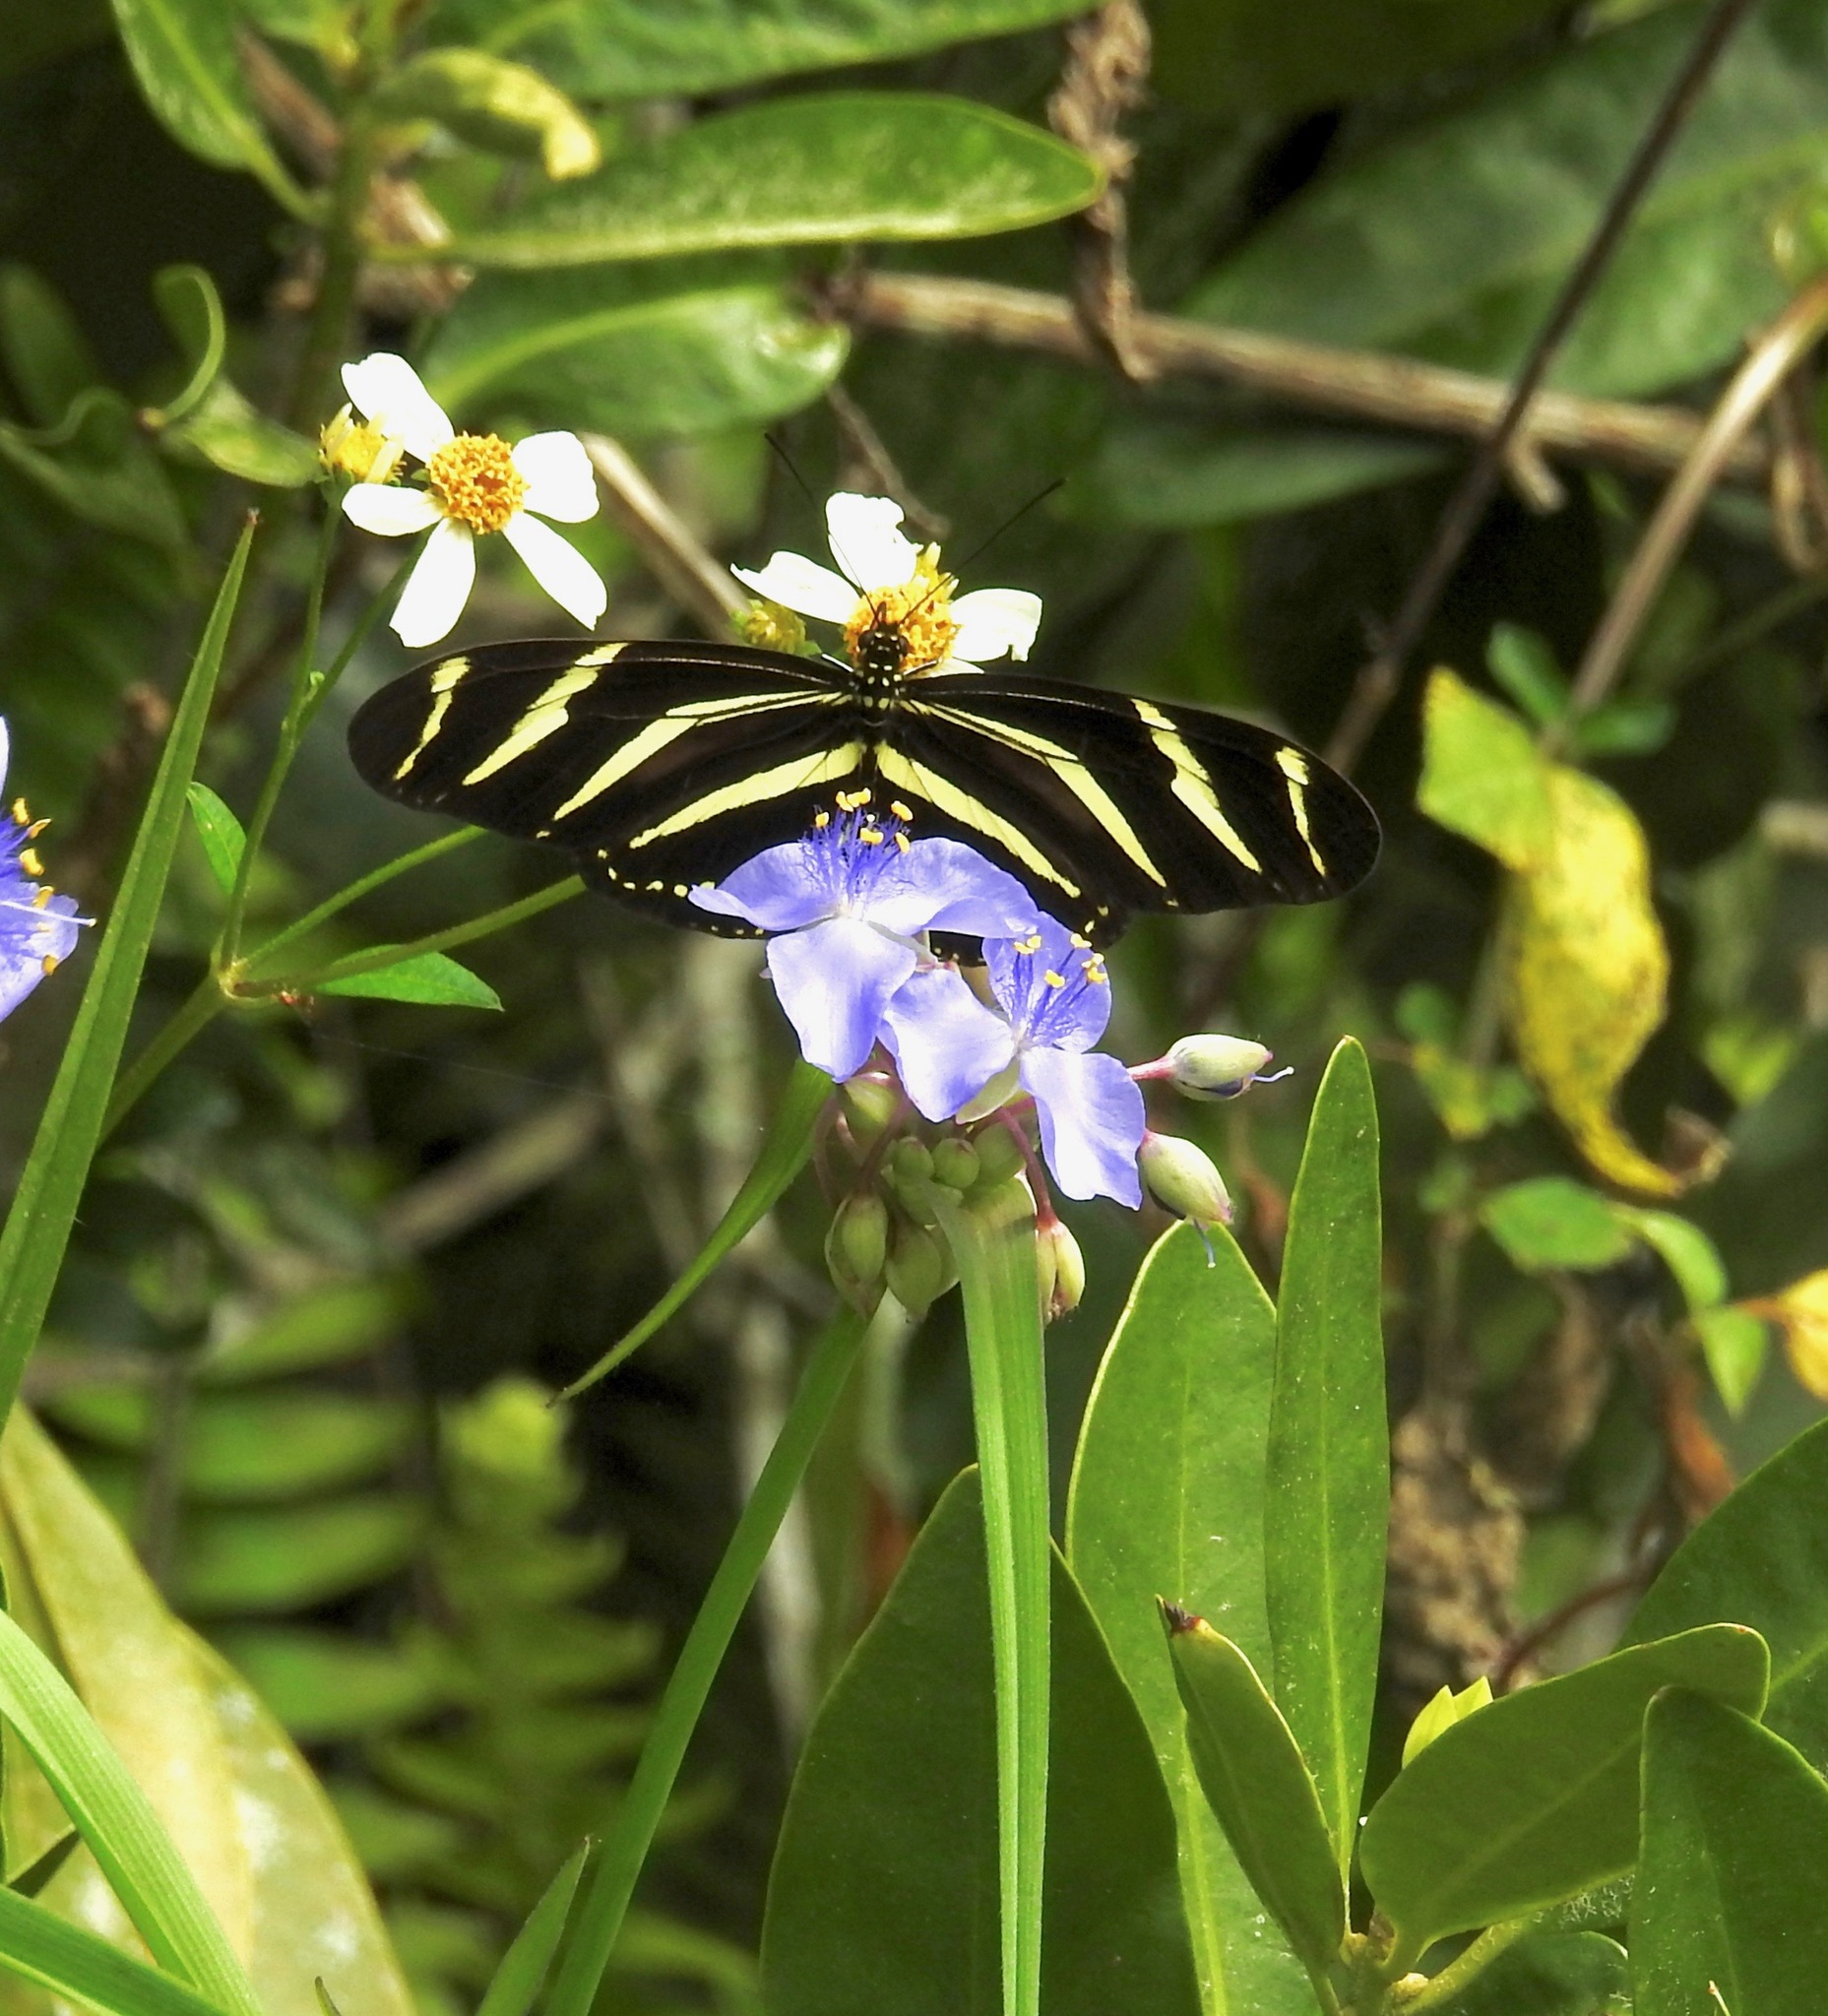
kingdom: Animalia
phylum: Arthropoda
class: Insecta
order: Lepidoptera
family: Nymphalidae
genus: Heliconius
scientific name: Heliconius charithonia
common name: Zebra long wing
